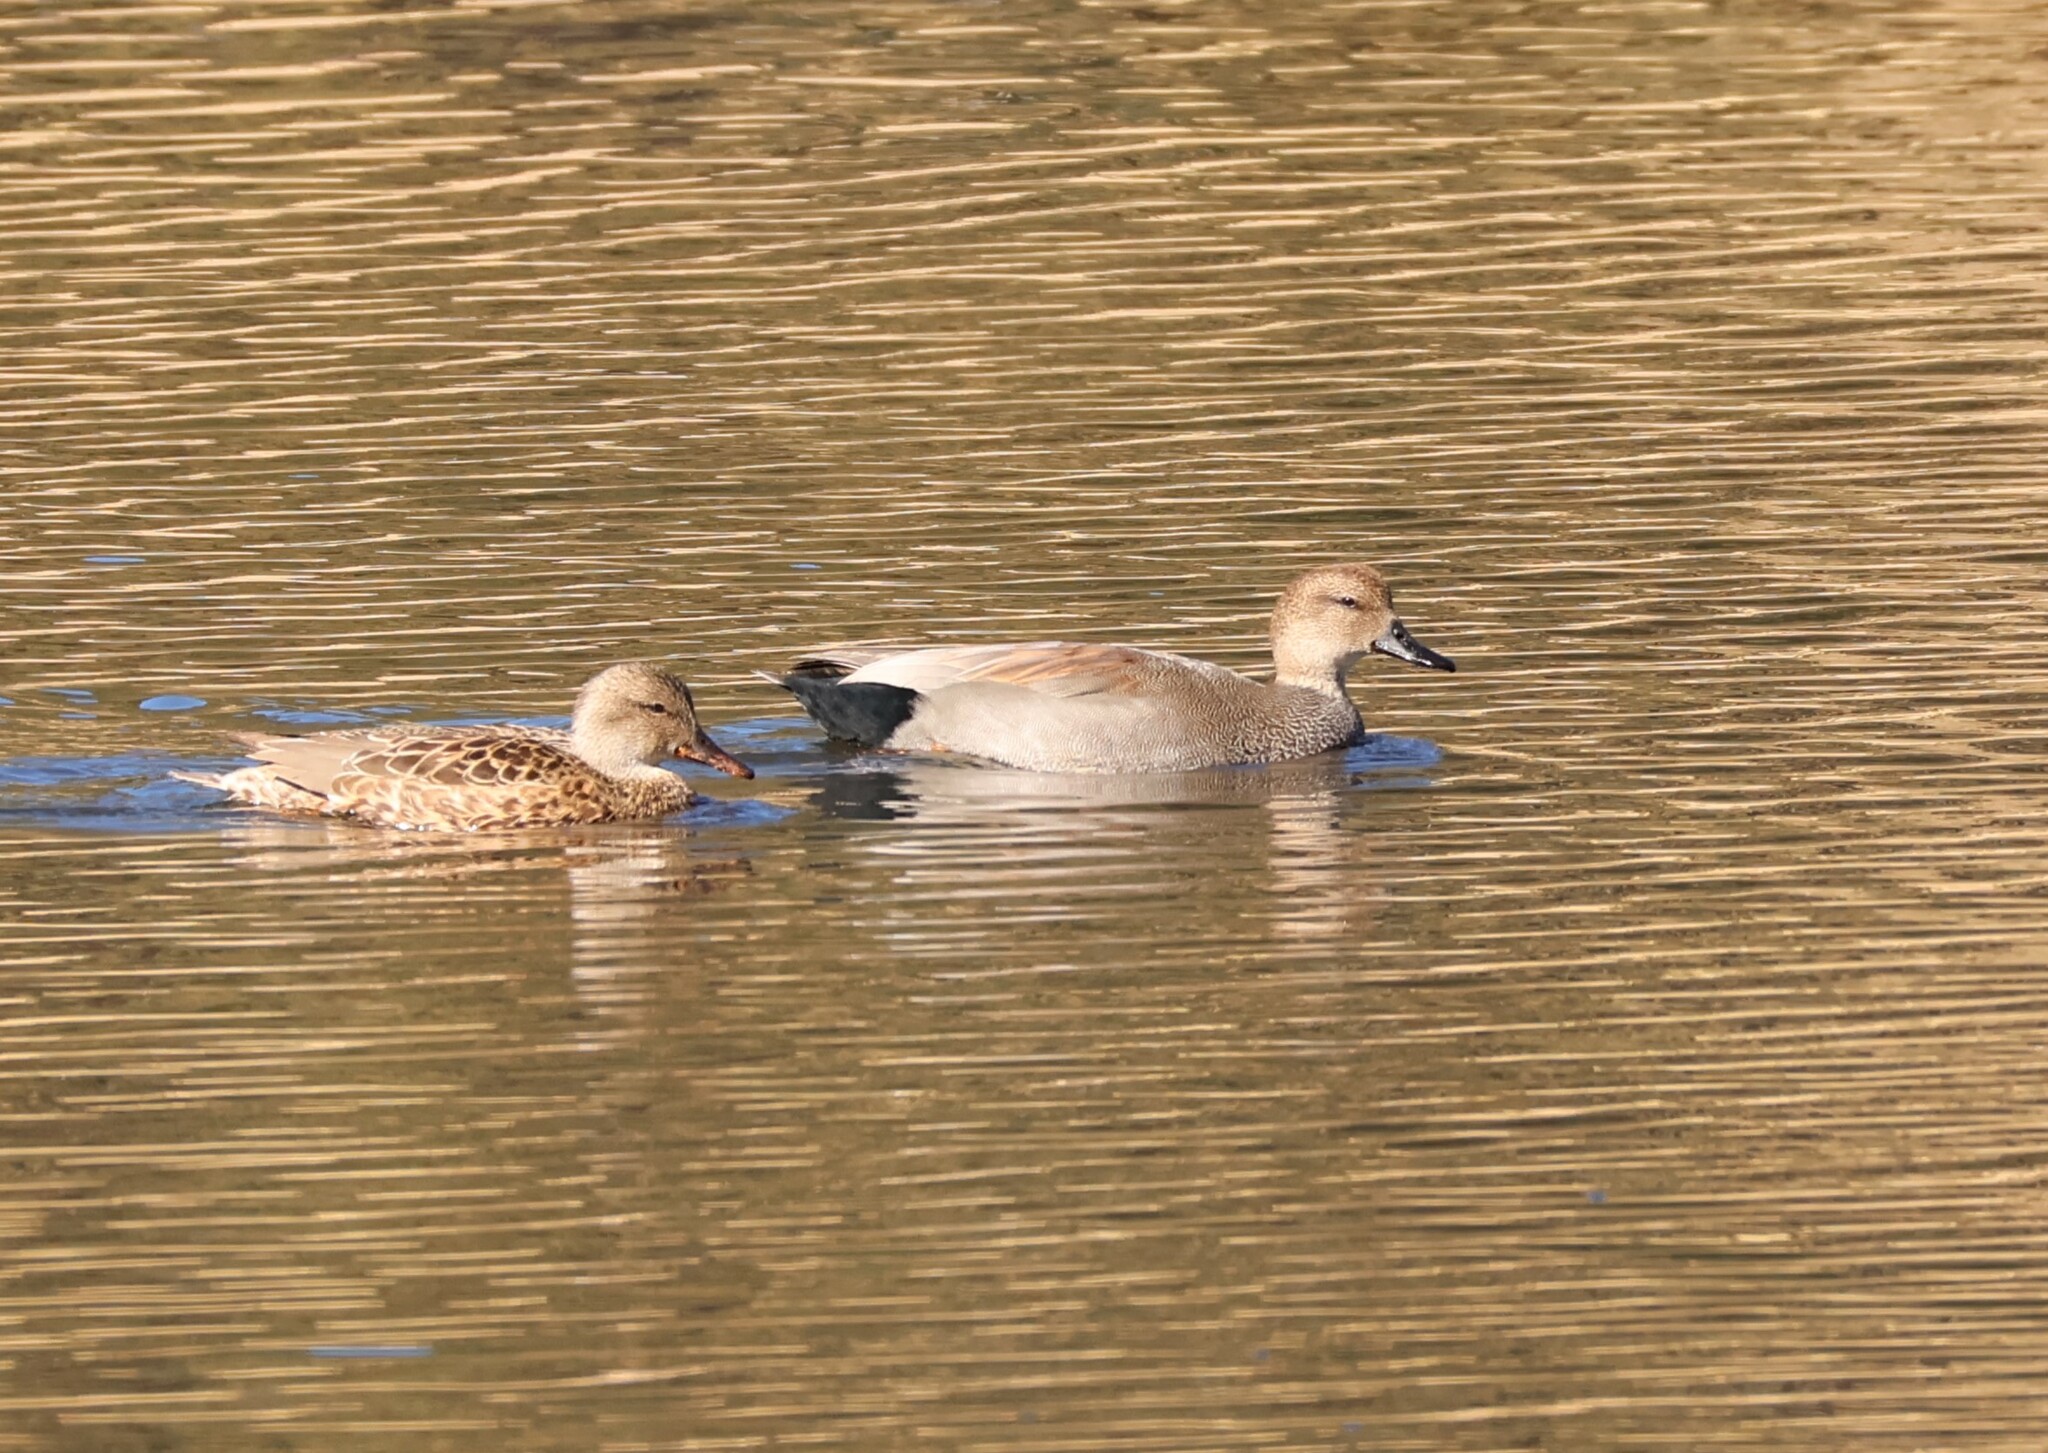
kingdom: Animalia
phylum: Chordata
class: Aves
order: Anseriformes
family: Anatidae
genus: Mareca
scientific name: Mareca strepera
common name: Gadwall
